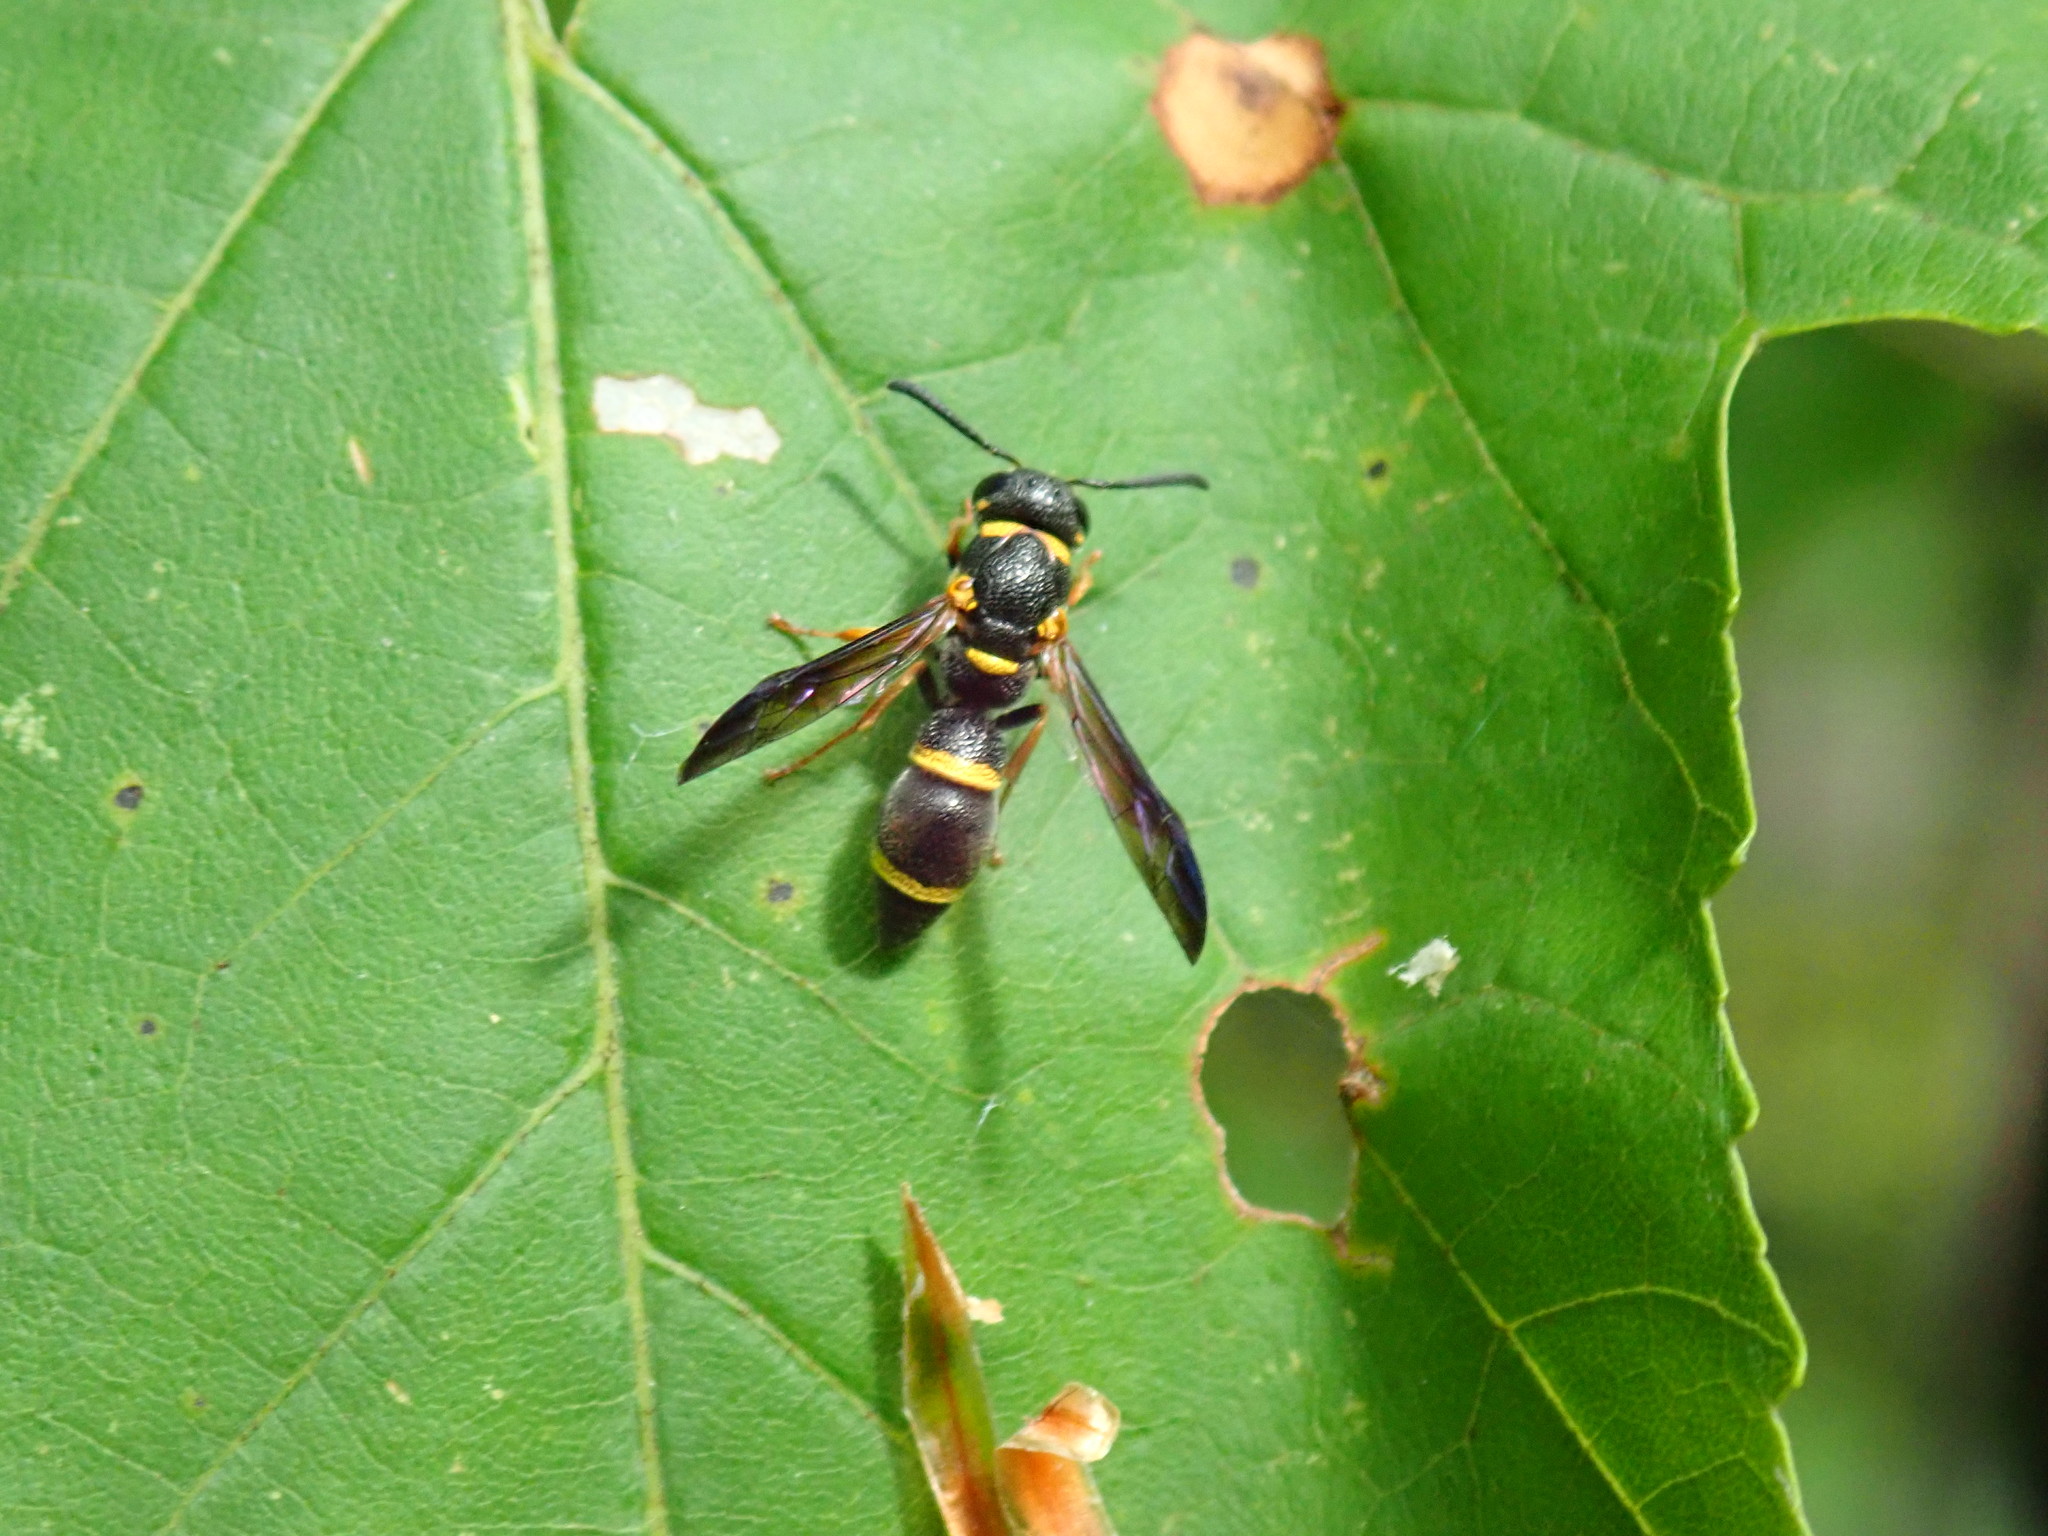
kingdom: Animalia
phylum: Arthropoda
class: Insecta
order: Hymenoptera
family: Eumenidae
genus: Parancistrocerus
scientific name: Parancistrocerus perennis
